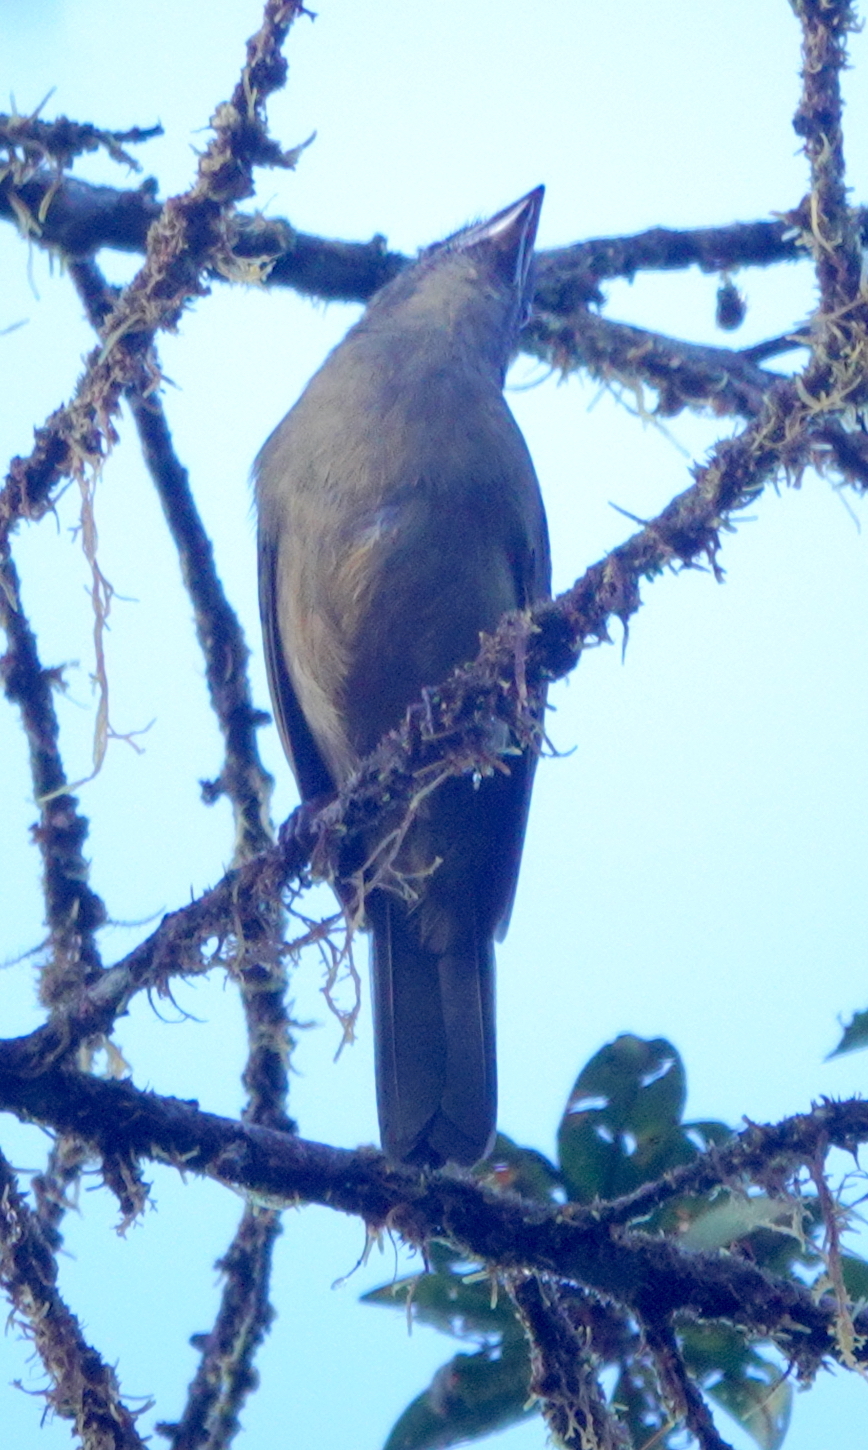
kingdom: Animalia
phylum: Chordata
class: Aves
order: Passeriformes
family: Cardinalidae
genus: Chlorothraupis
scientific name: Chlorothraupis stolzmanni
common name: Ochre-breasted tanager
